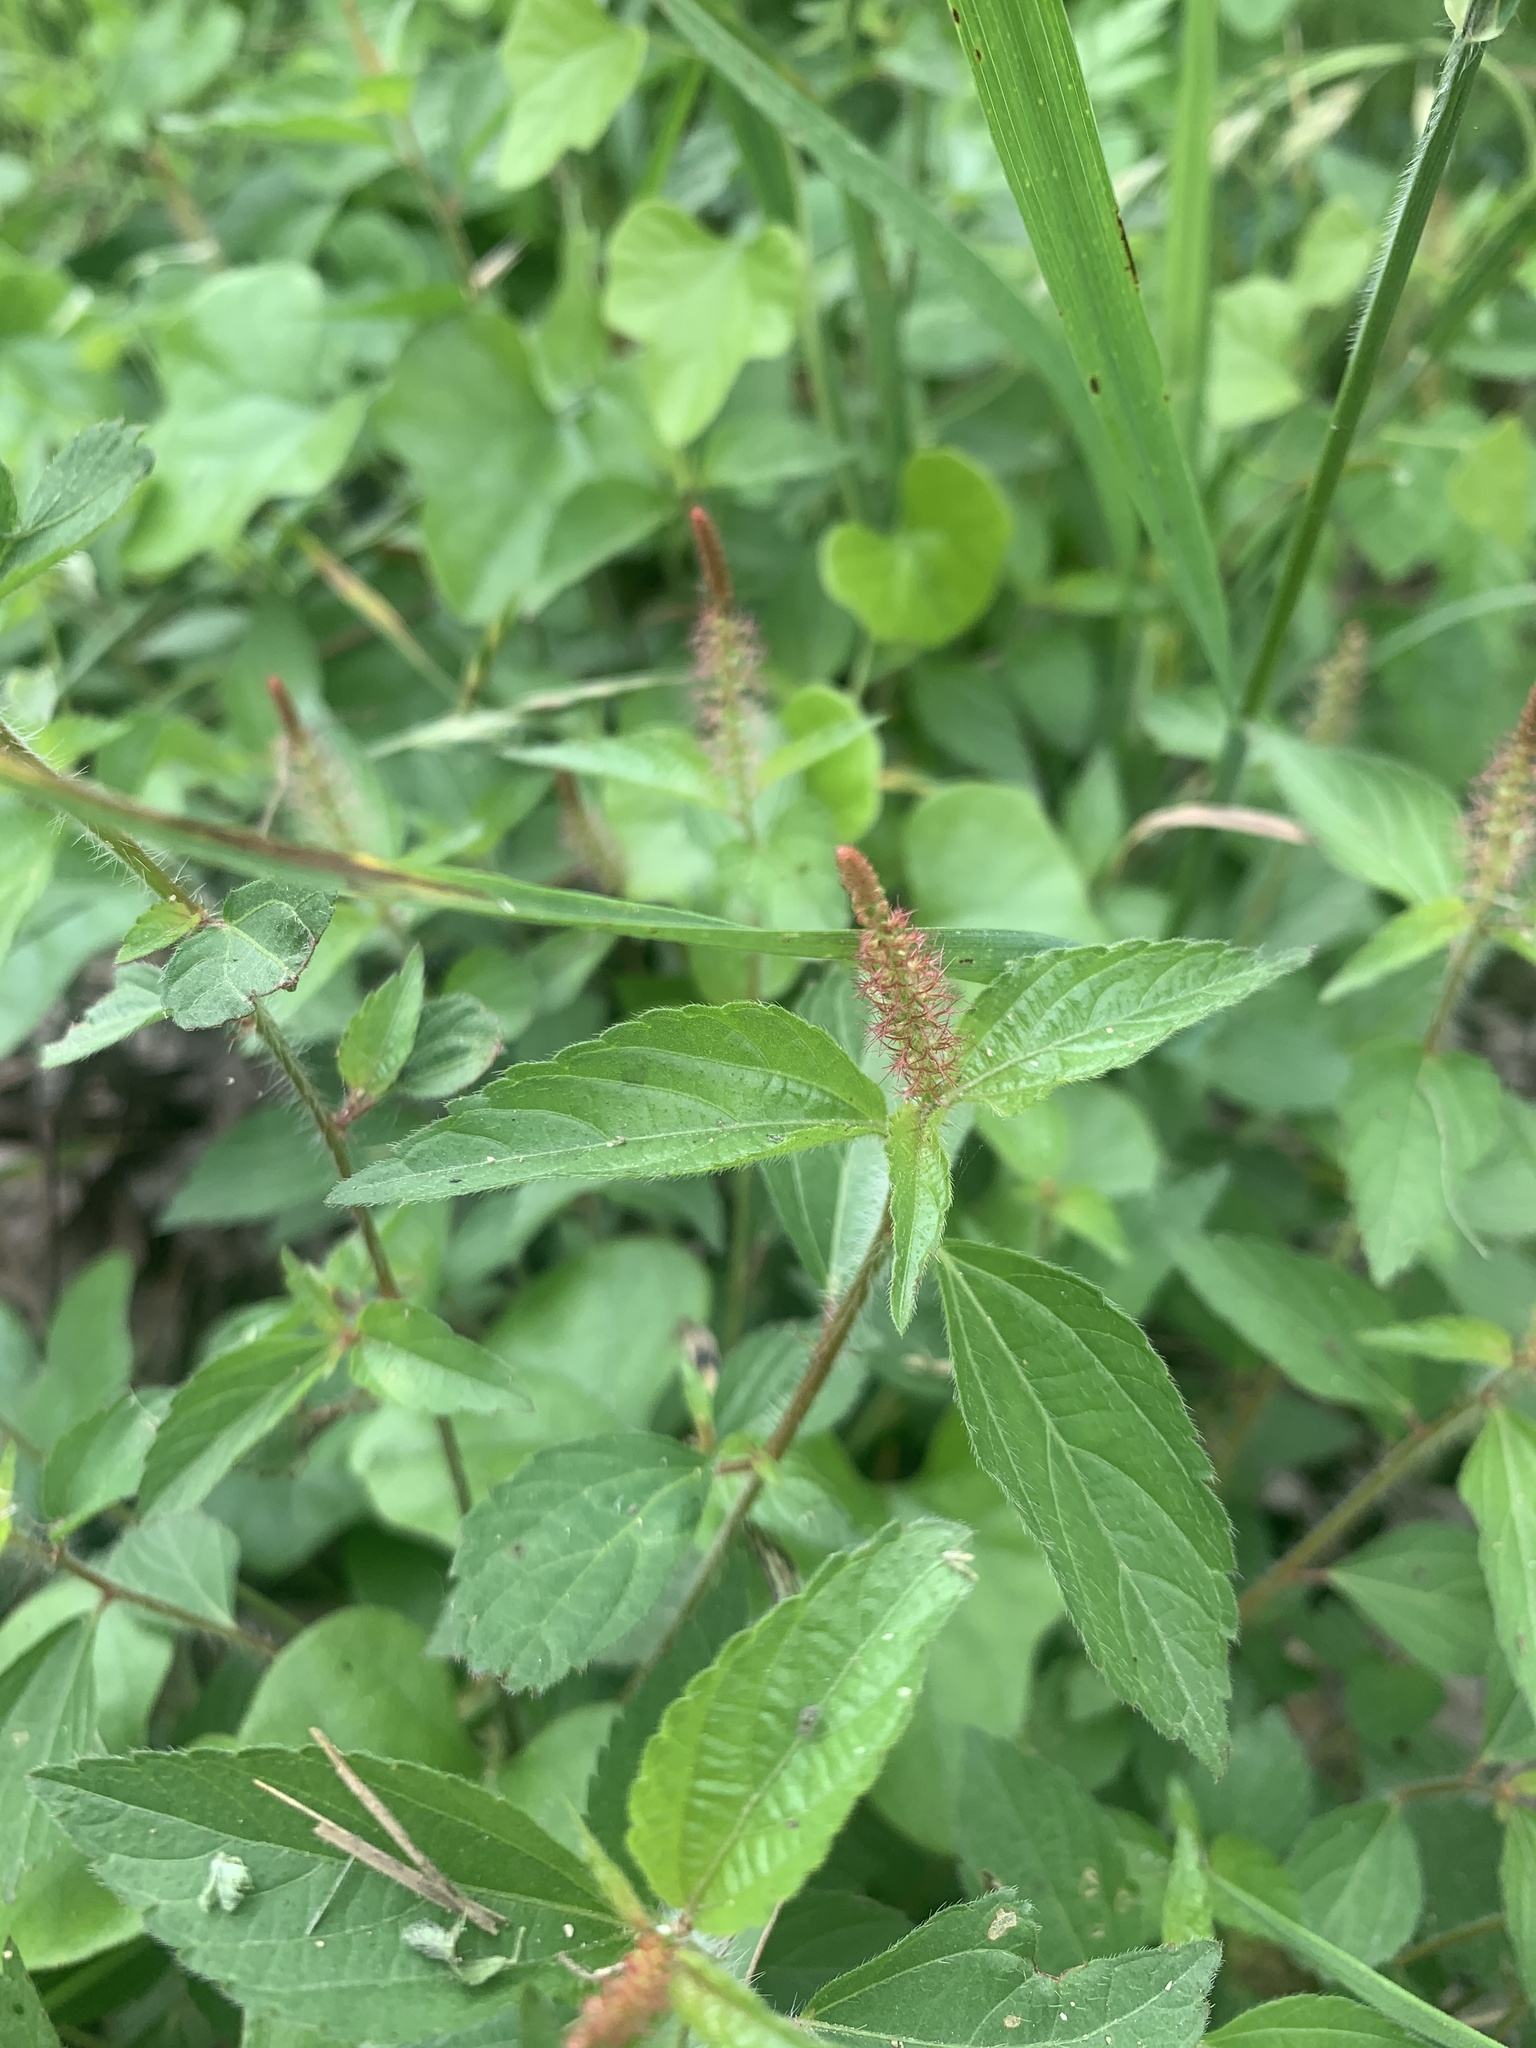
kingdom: Plantae
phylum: Tracheophyta
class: Magnoliopsida
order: Malpighiales
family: Euphorbiaceae
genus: Acalypha
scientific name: Acalypha phleoides
